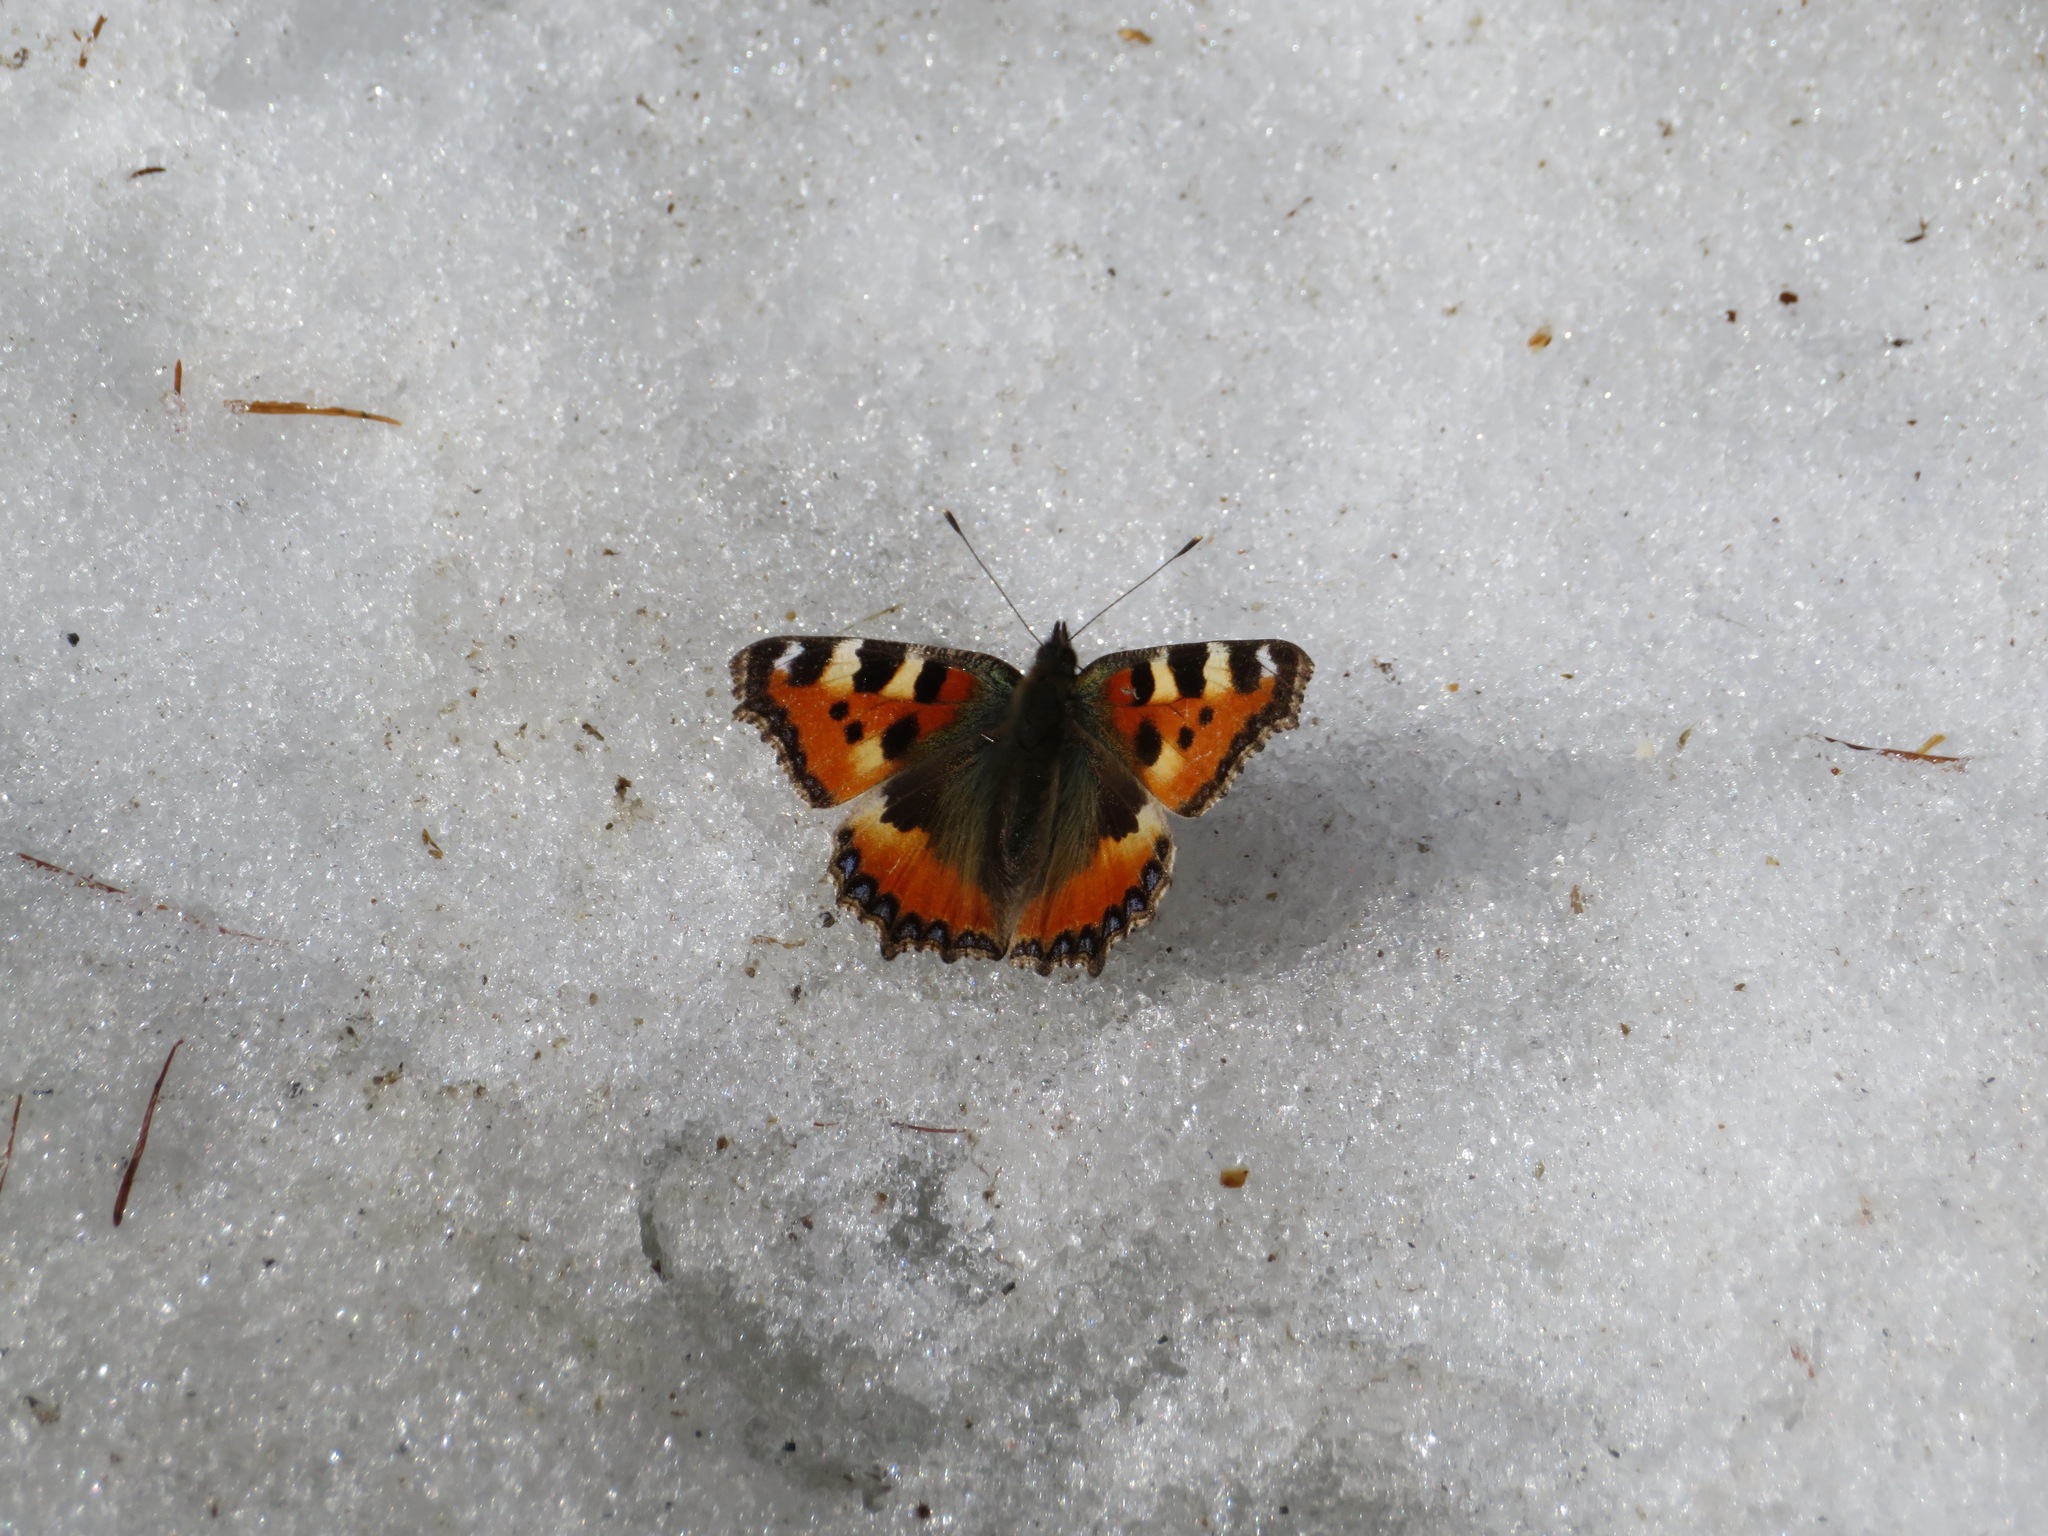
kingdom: Animalia
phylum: Arthropoda
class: Insecta
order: Lepidoptera
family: Nymphalidae
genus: Aglais
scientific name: Aglais urticae
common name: Small tortoiseshell
